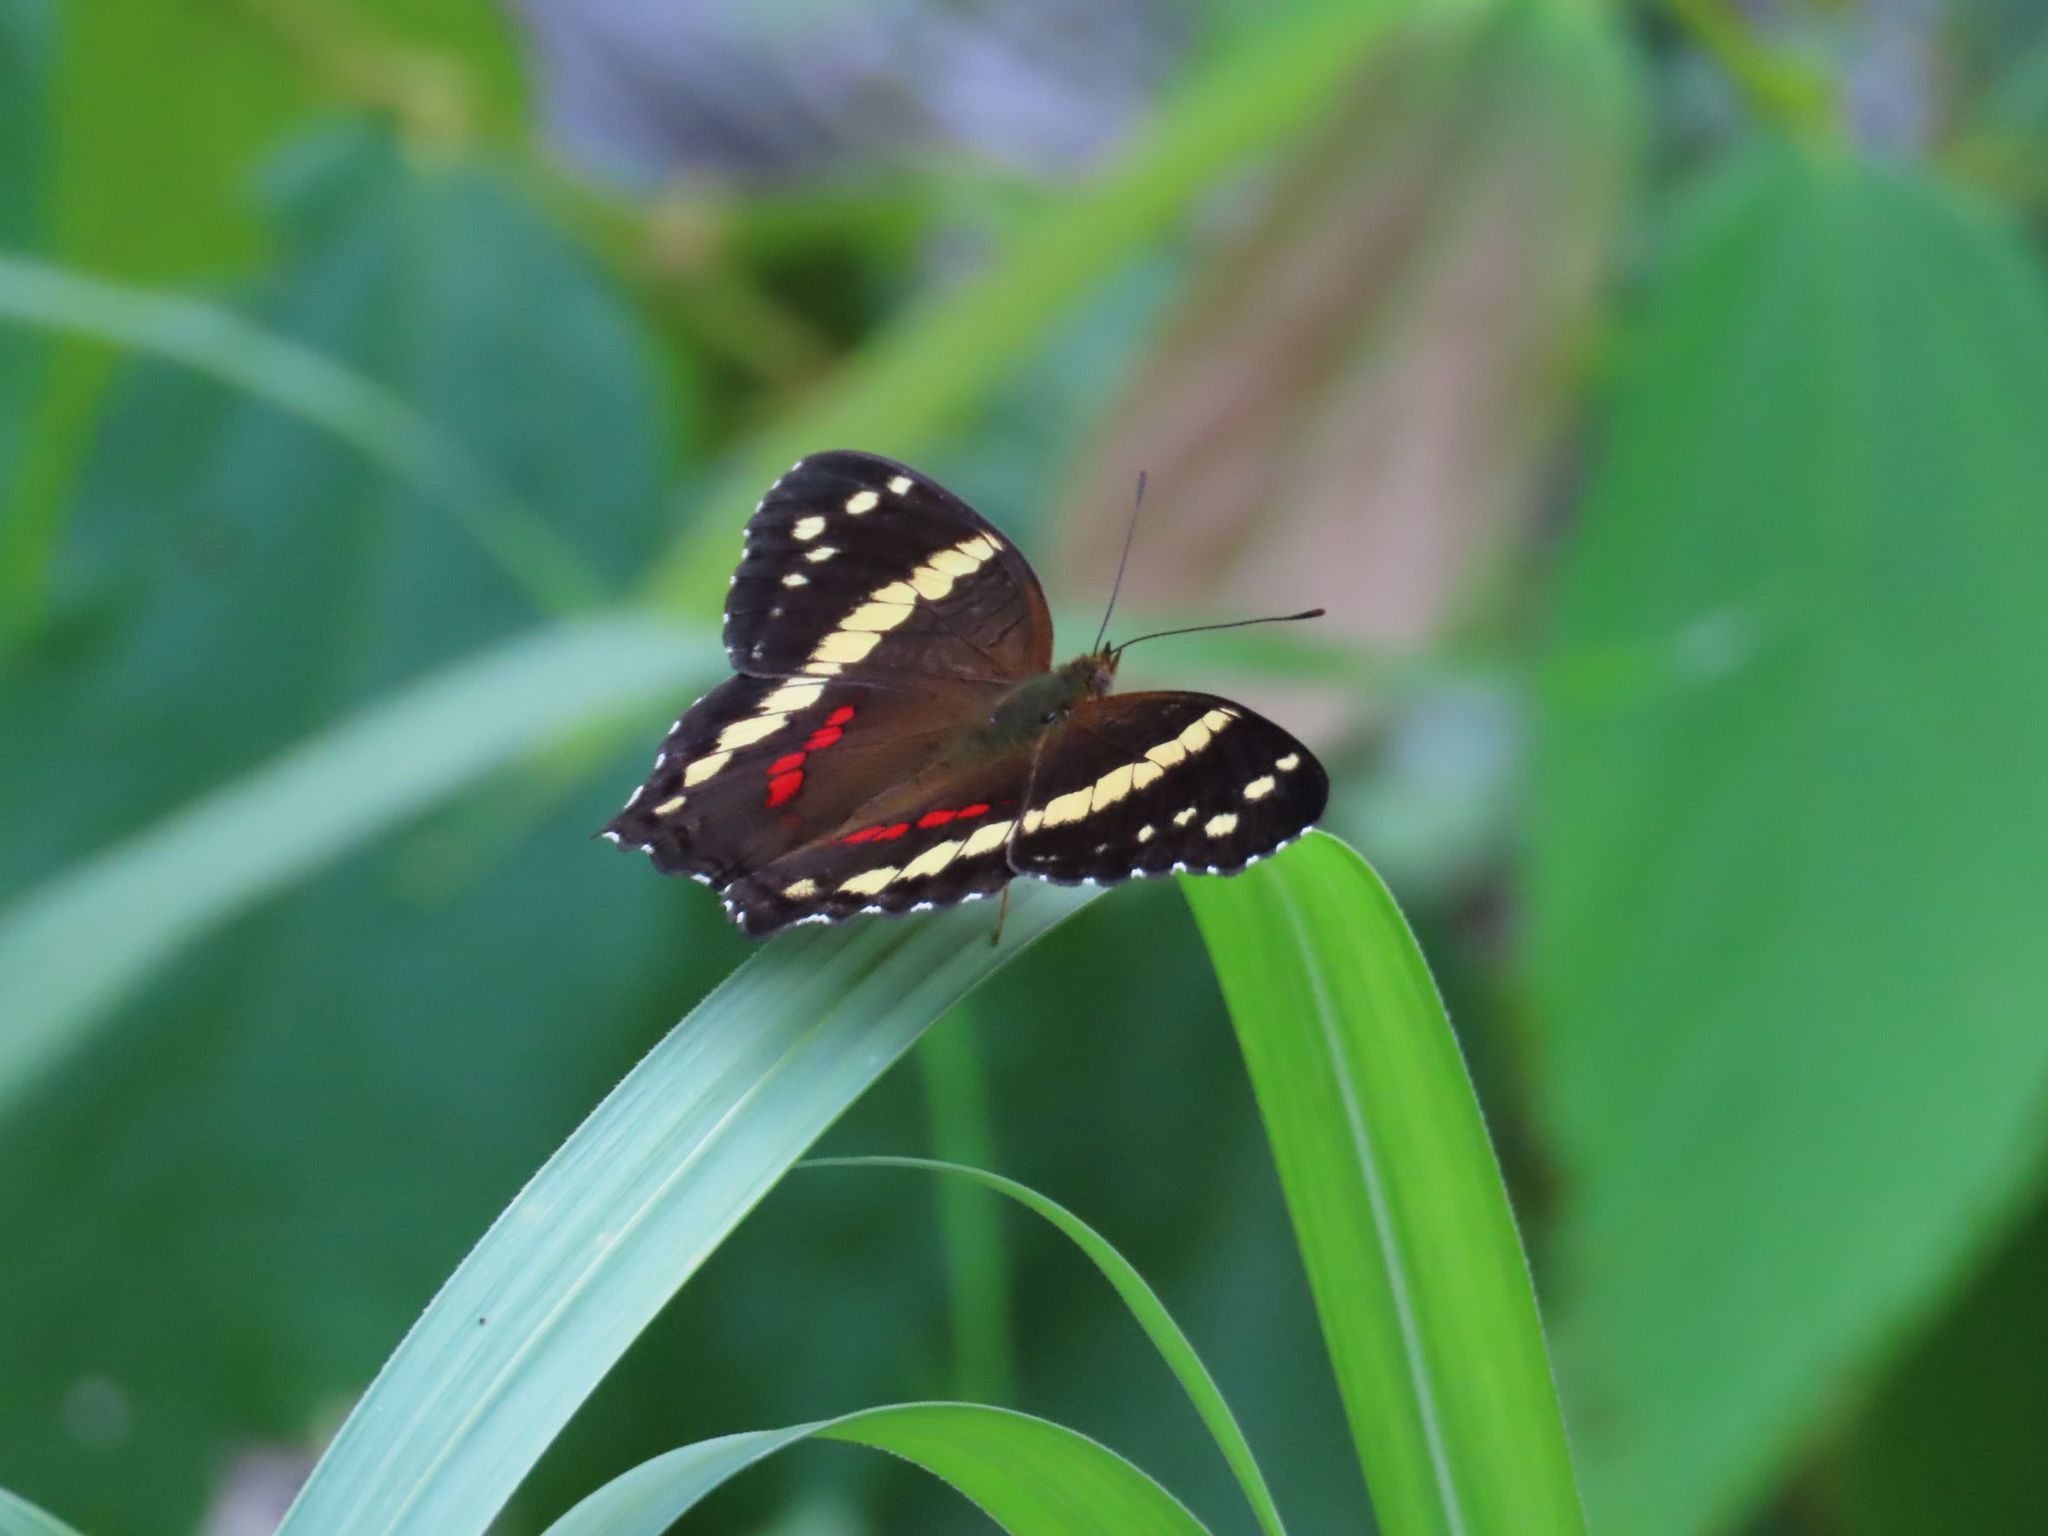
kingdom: Animalia
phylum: Arthropoda
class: Insecta
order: Lepidoptera
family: Nymphalidae
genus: Anartia
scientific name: Anartia fatima
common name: Banded peacock
